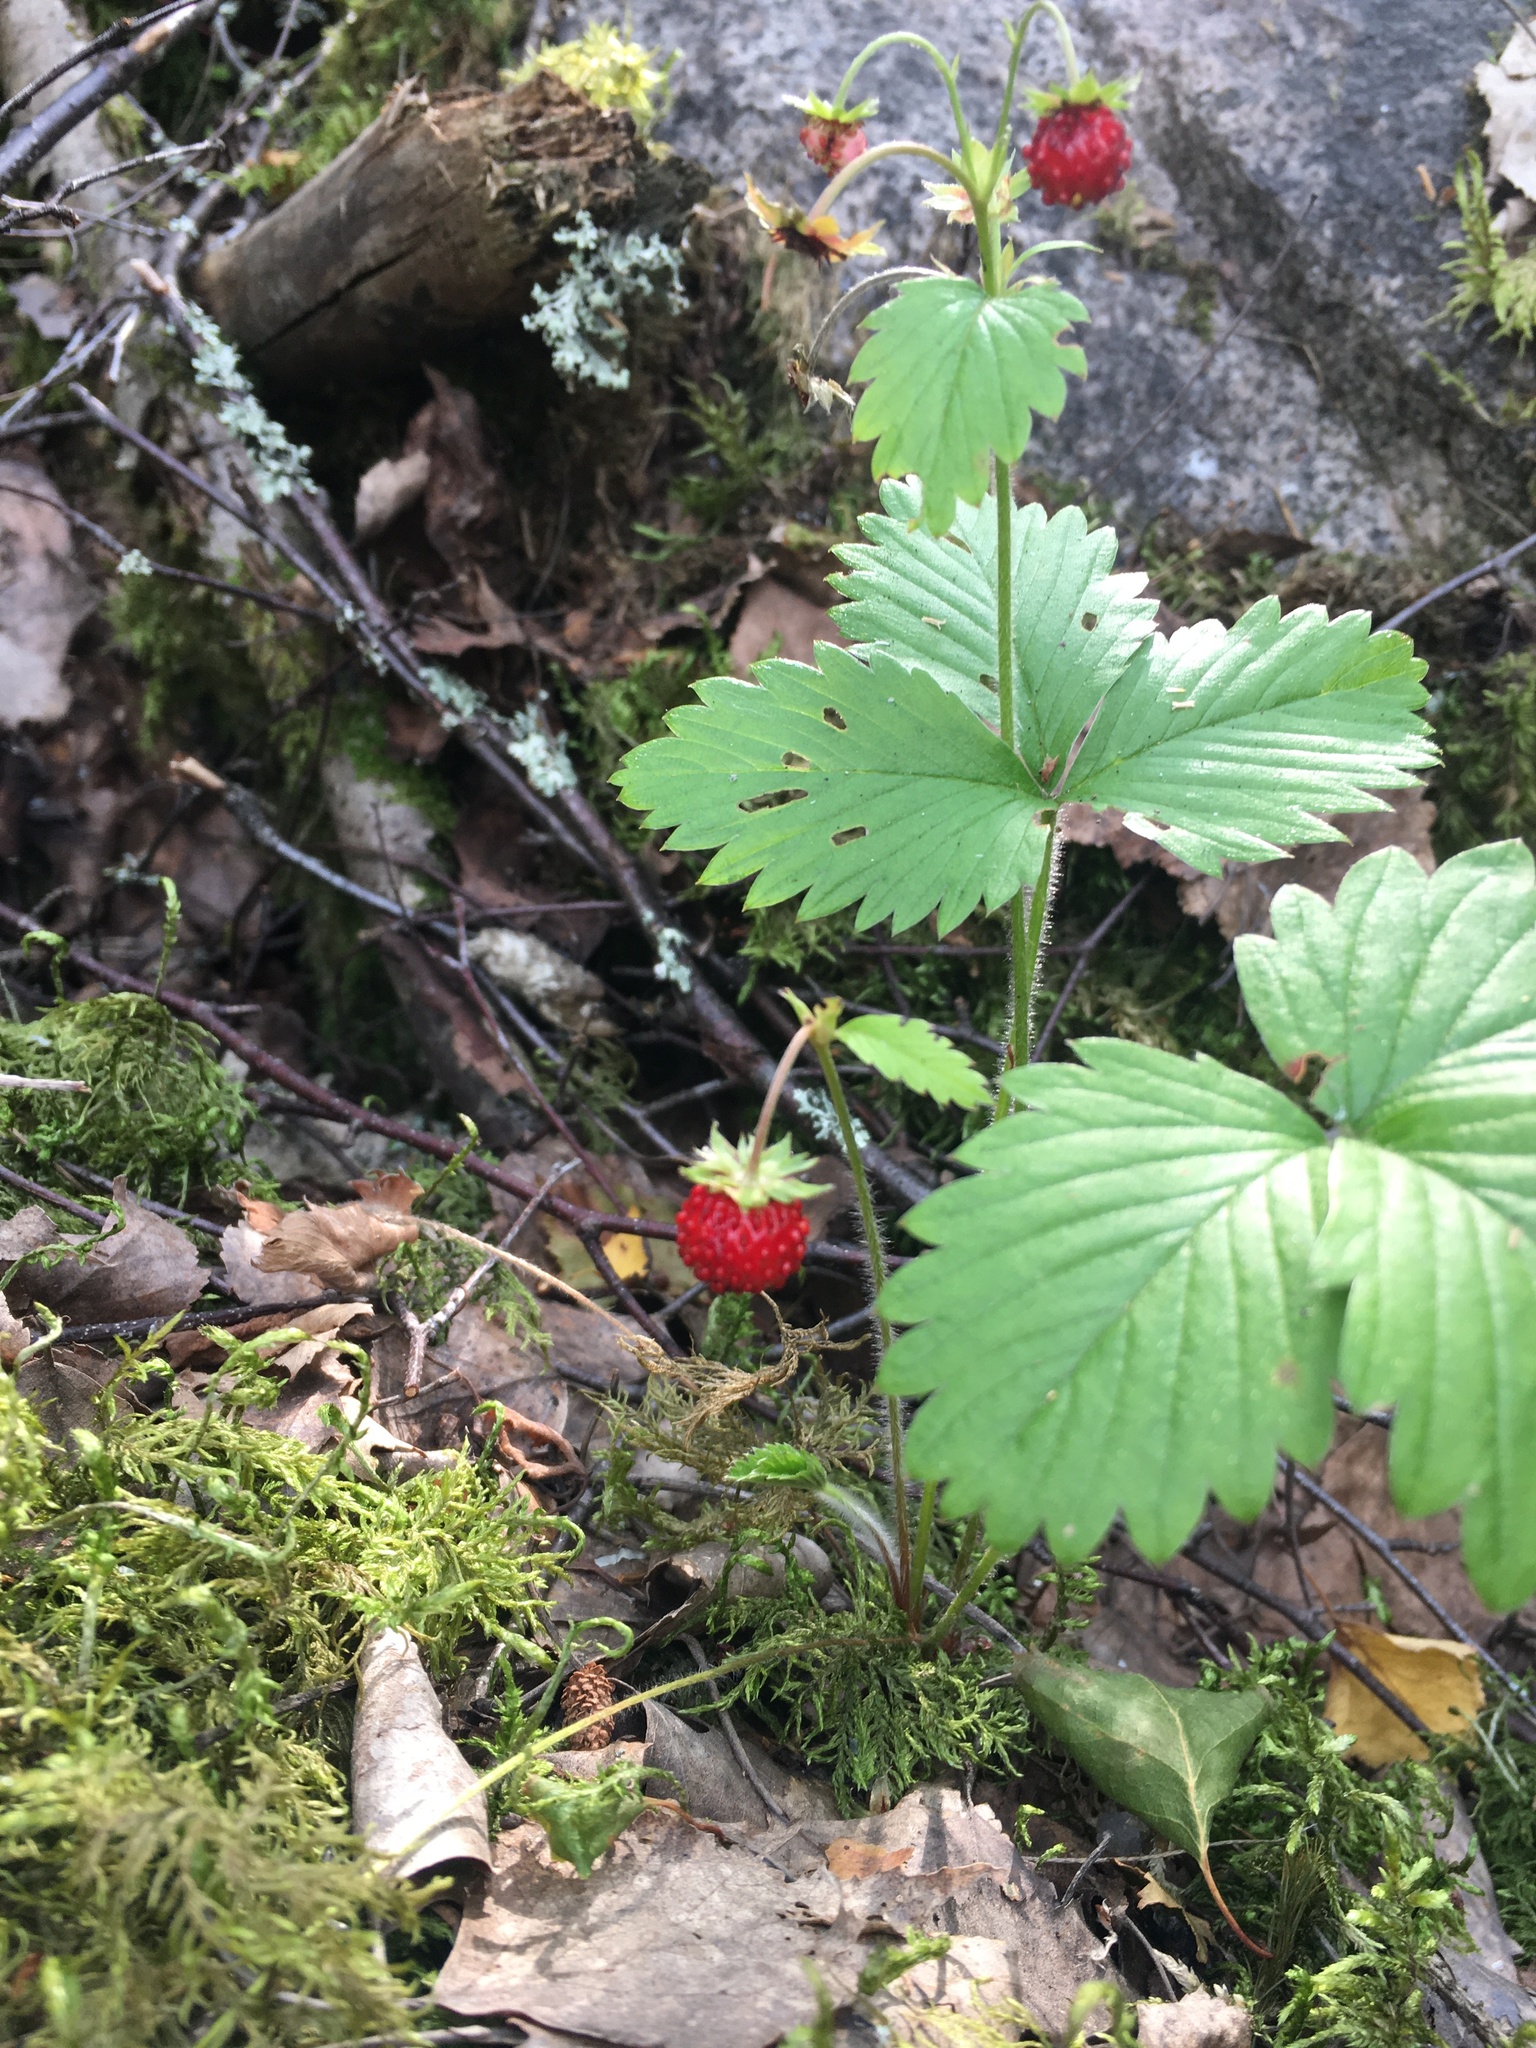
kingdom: Plantae
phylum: Tracheophyta
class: Magnoliopsida
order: Rosales
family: Rosaceae
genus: Fragaria
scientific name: Fragaria vesca
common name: Wild strawberry
